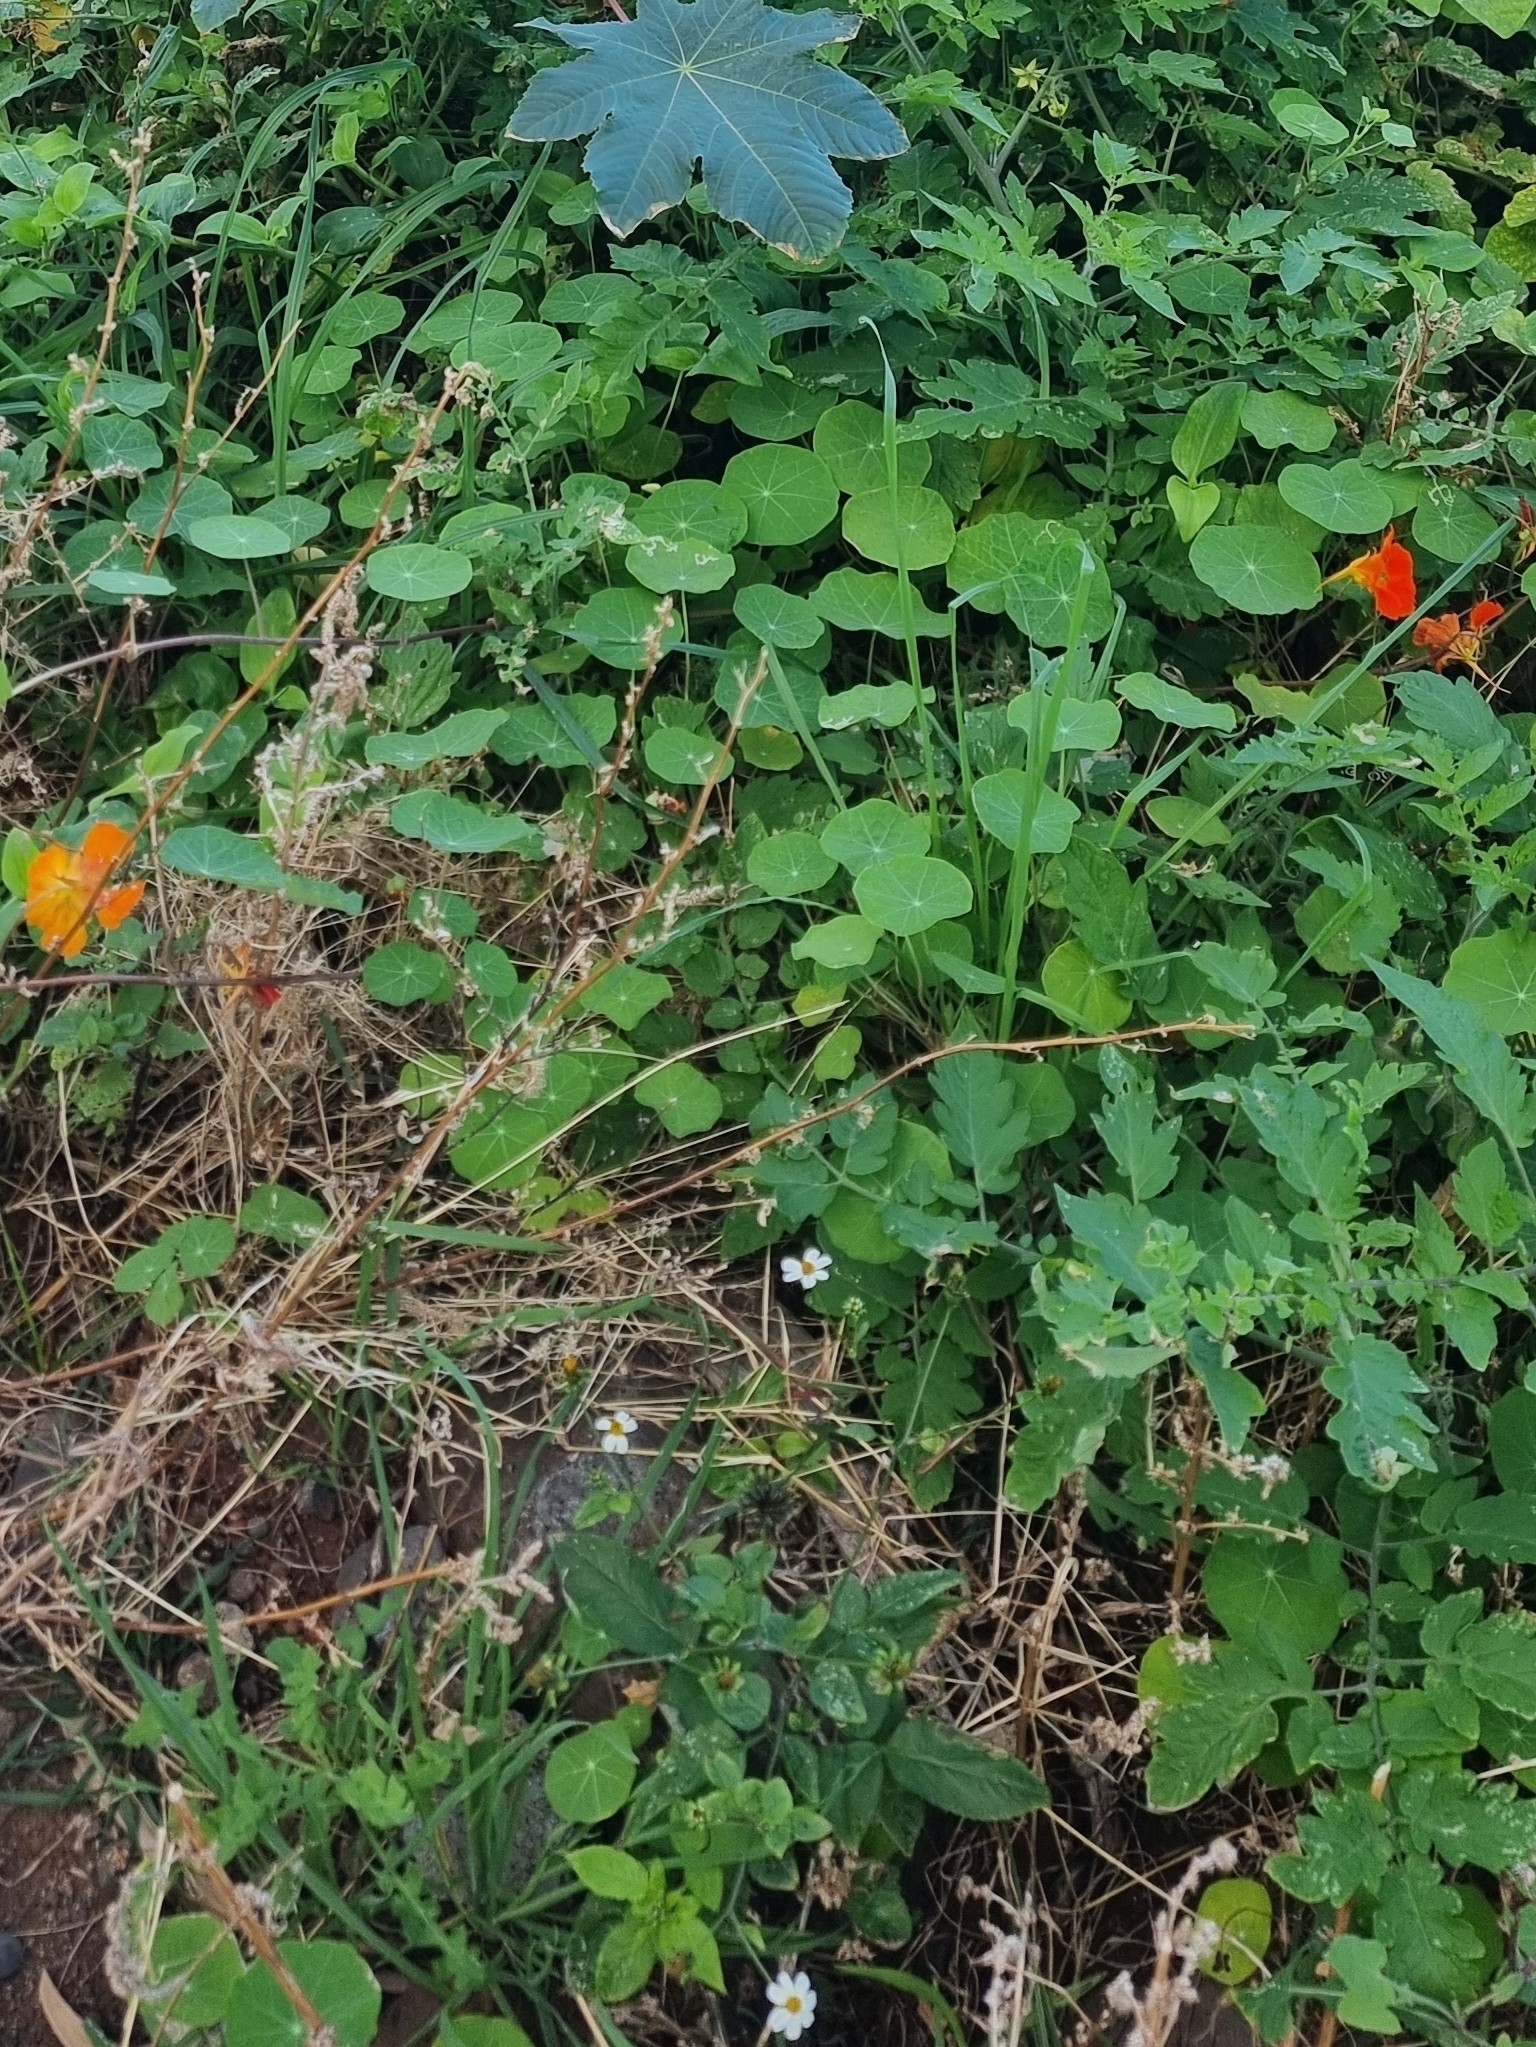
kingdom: Plantae
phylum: Tracheophyta
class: Magnoliopsida
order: Brassicales
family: Tropaeolaceae
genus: Tropaeolum
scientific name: Tropaeolum majus
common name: Nasturtium
